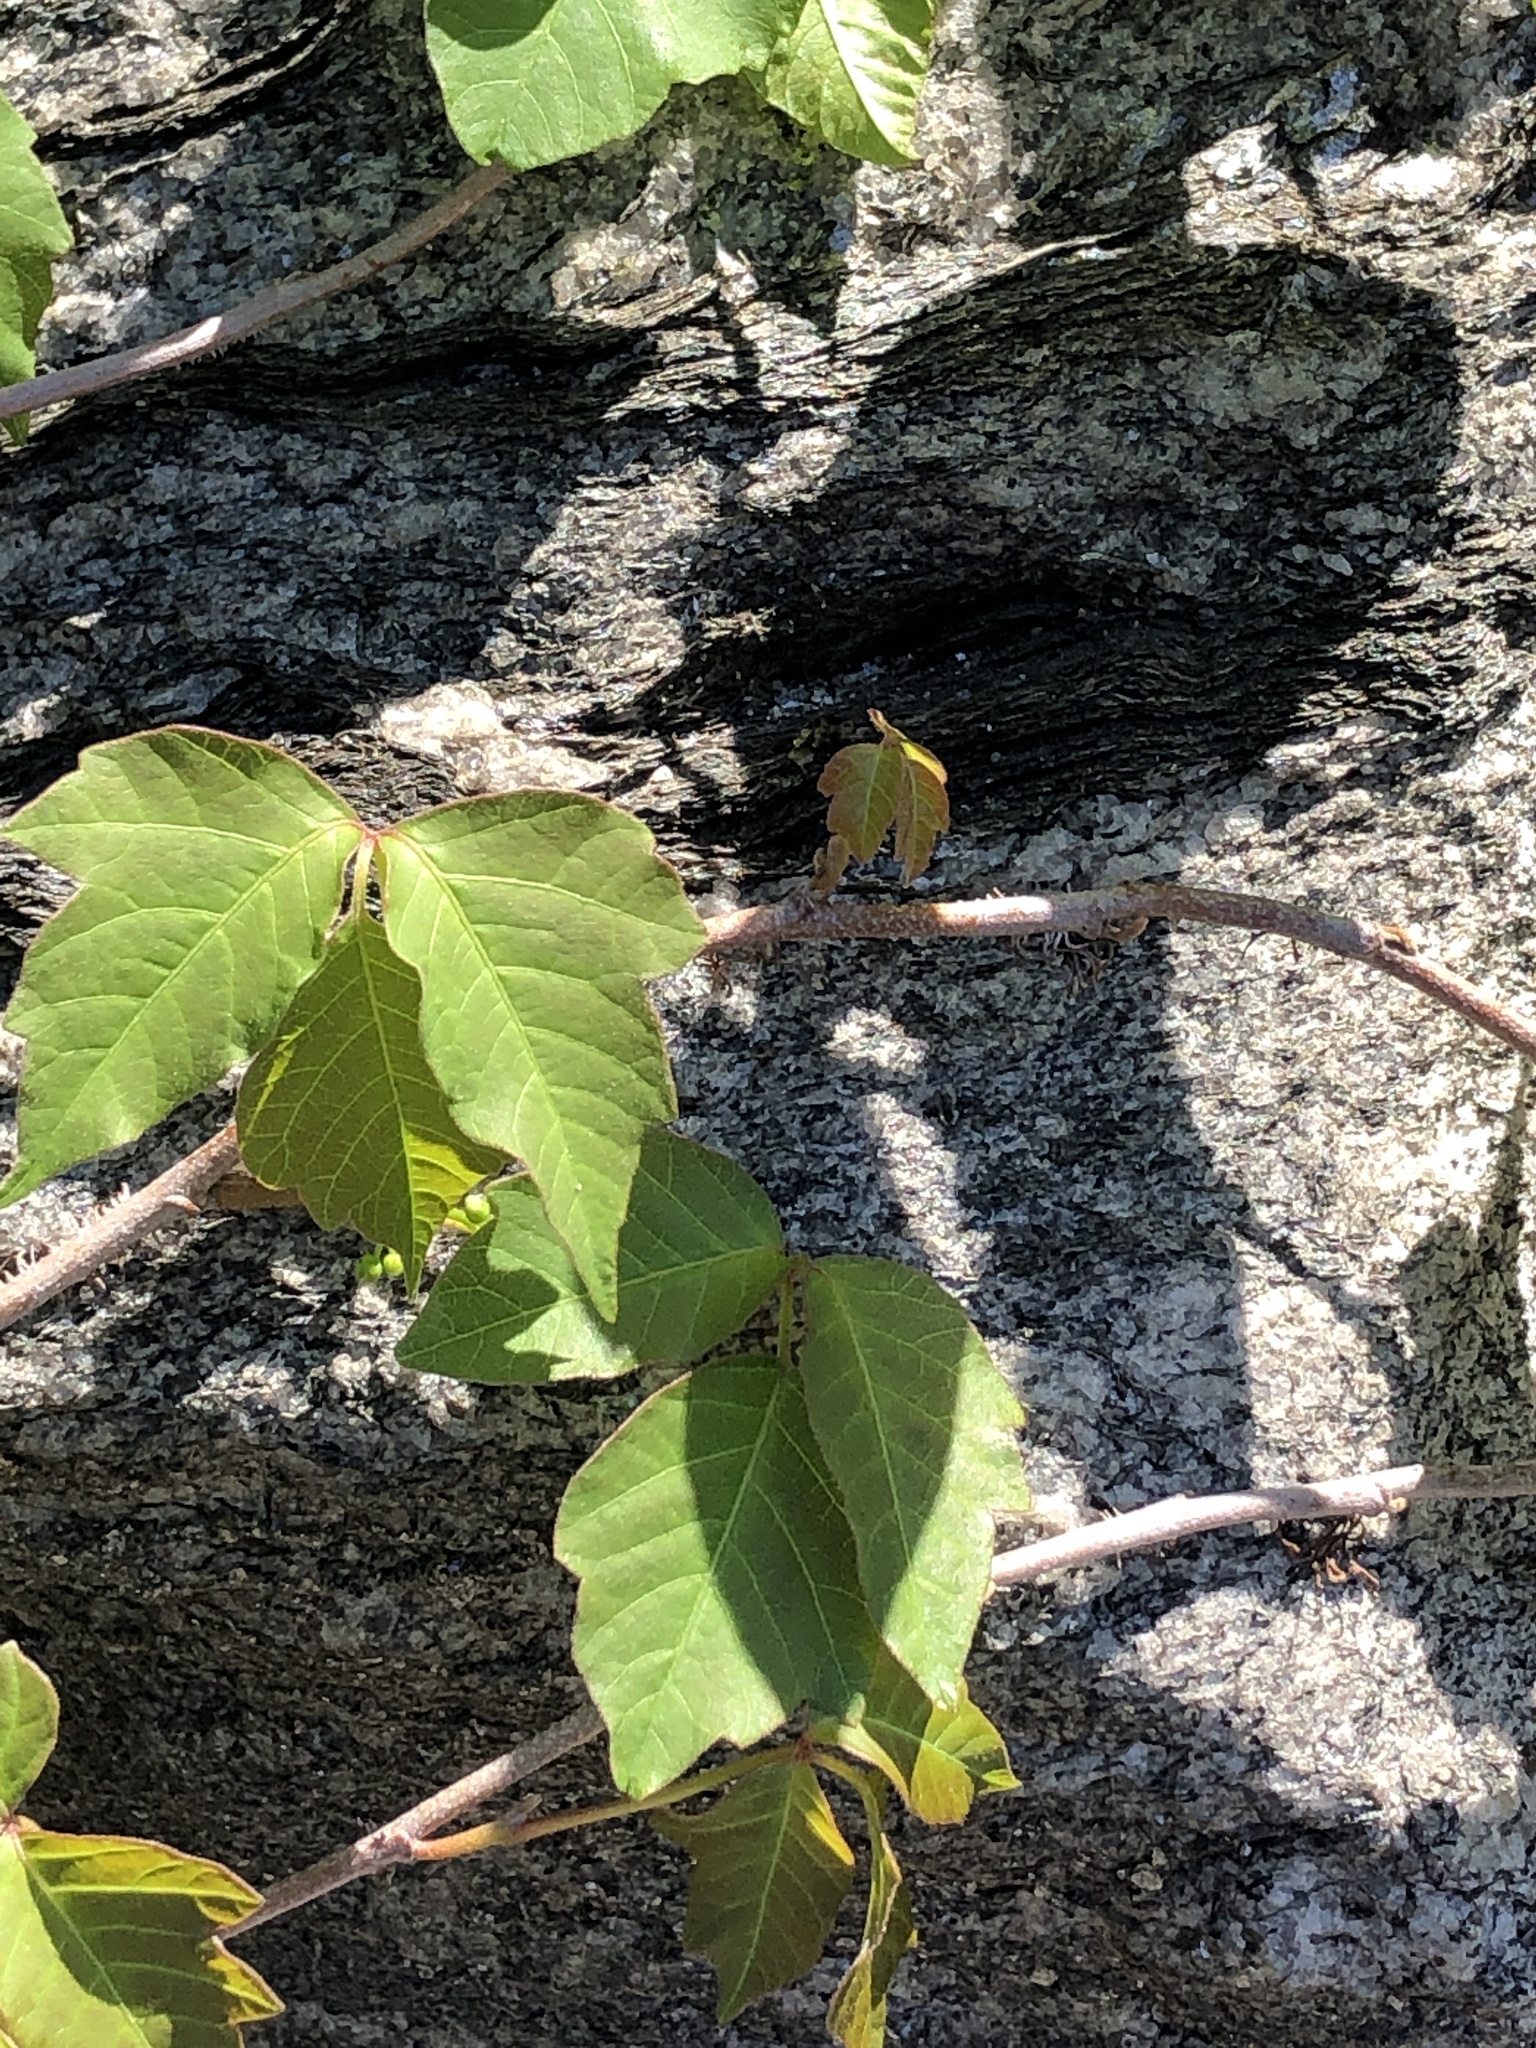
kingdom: Plantae
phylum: Tracheophyta
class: Magnoliopsida
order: Sapindales
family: Anacardiaceae
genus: Toxicodendron
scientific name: Toxicodendron radicans
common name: Poison ivy
